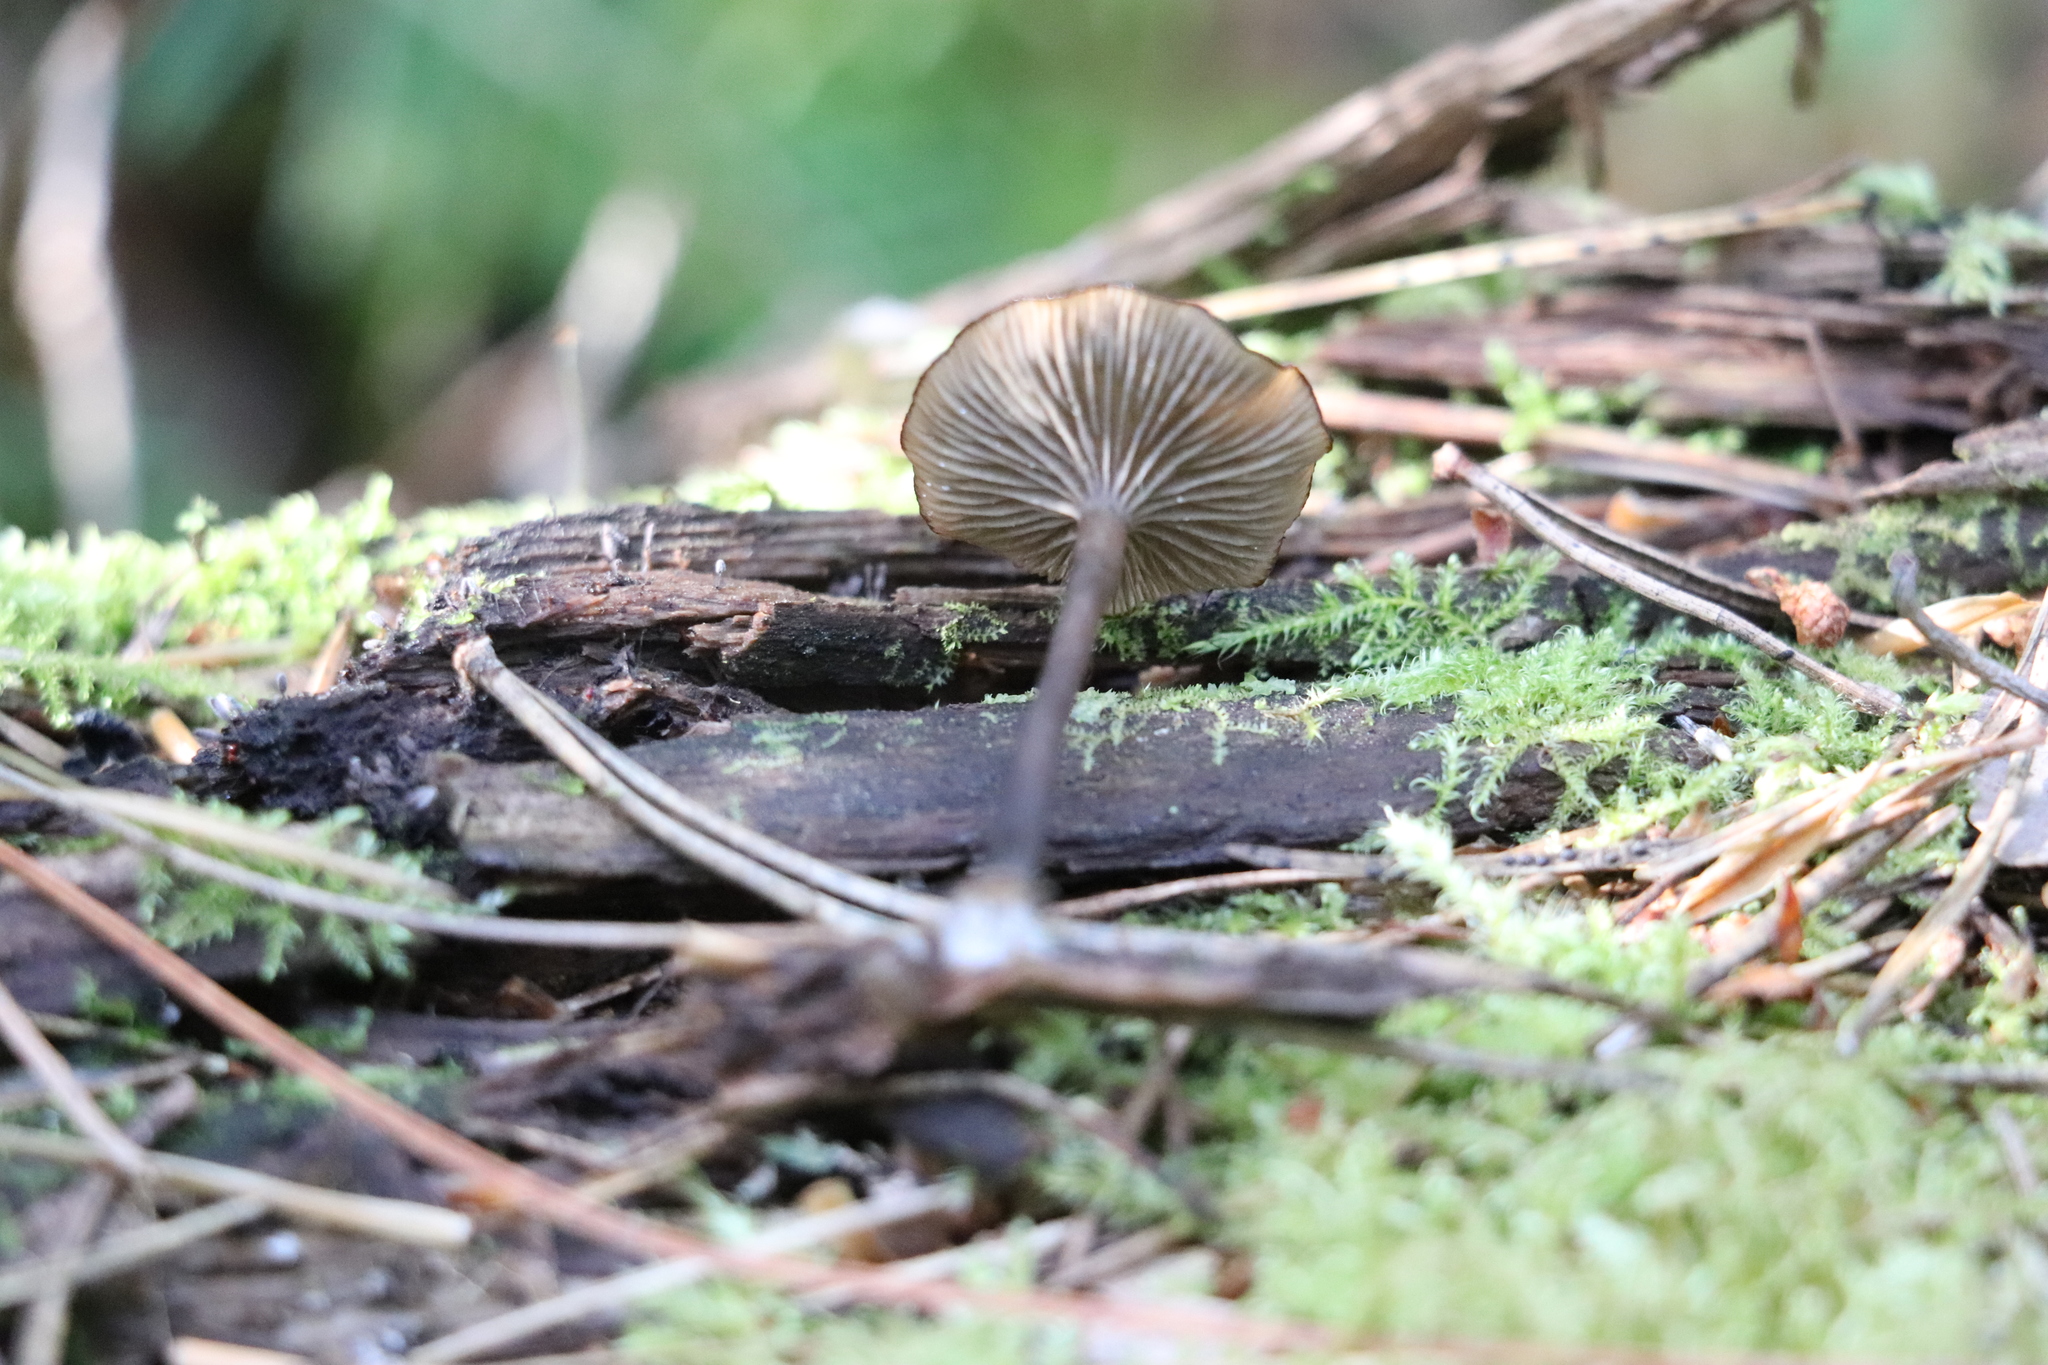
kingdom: Fungi
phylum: Basidiomycota
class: Agaricomycetes
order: Agaricales
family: Hygrophoraceae
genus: Arrhenia
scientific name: Arrhenia epichysium
